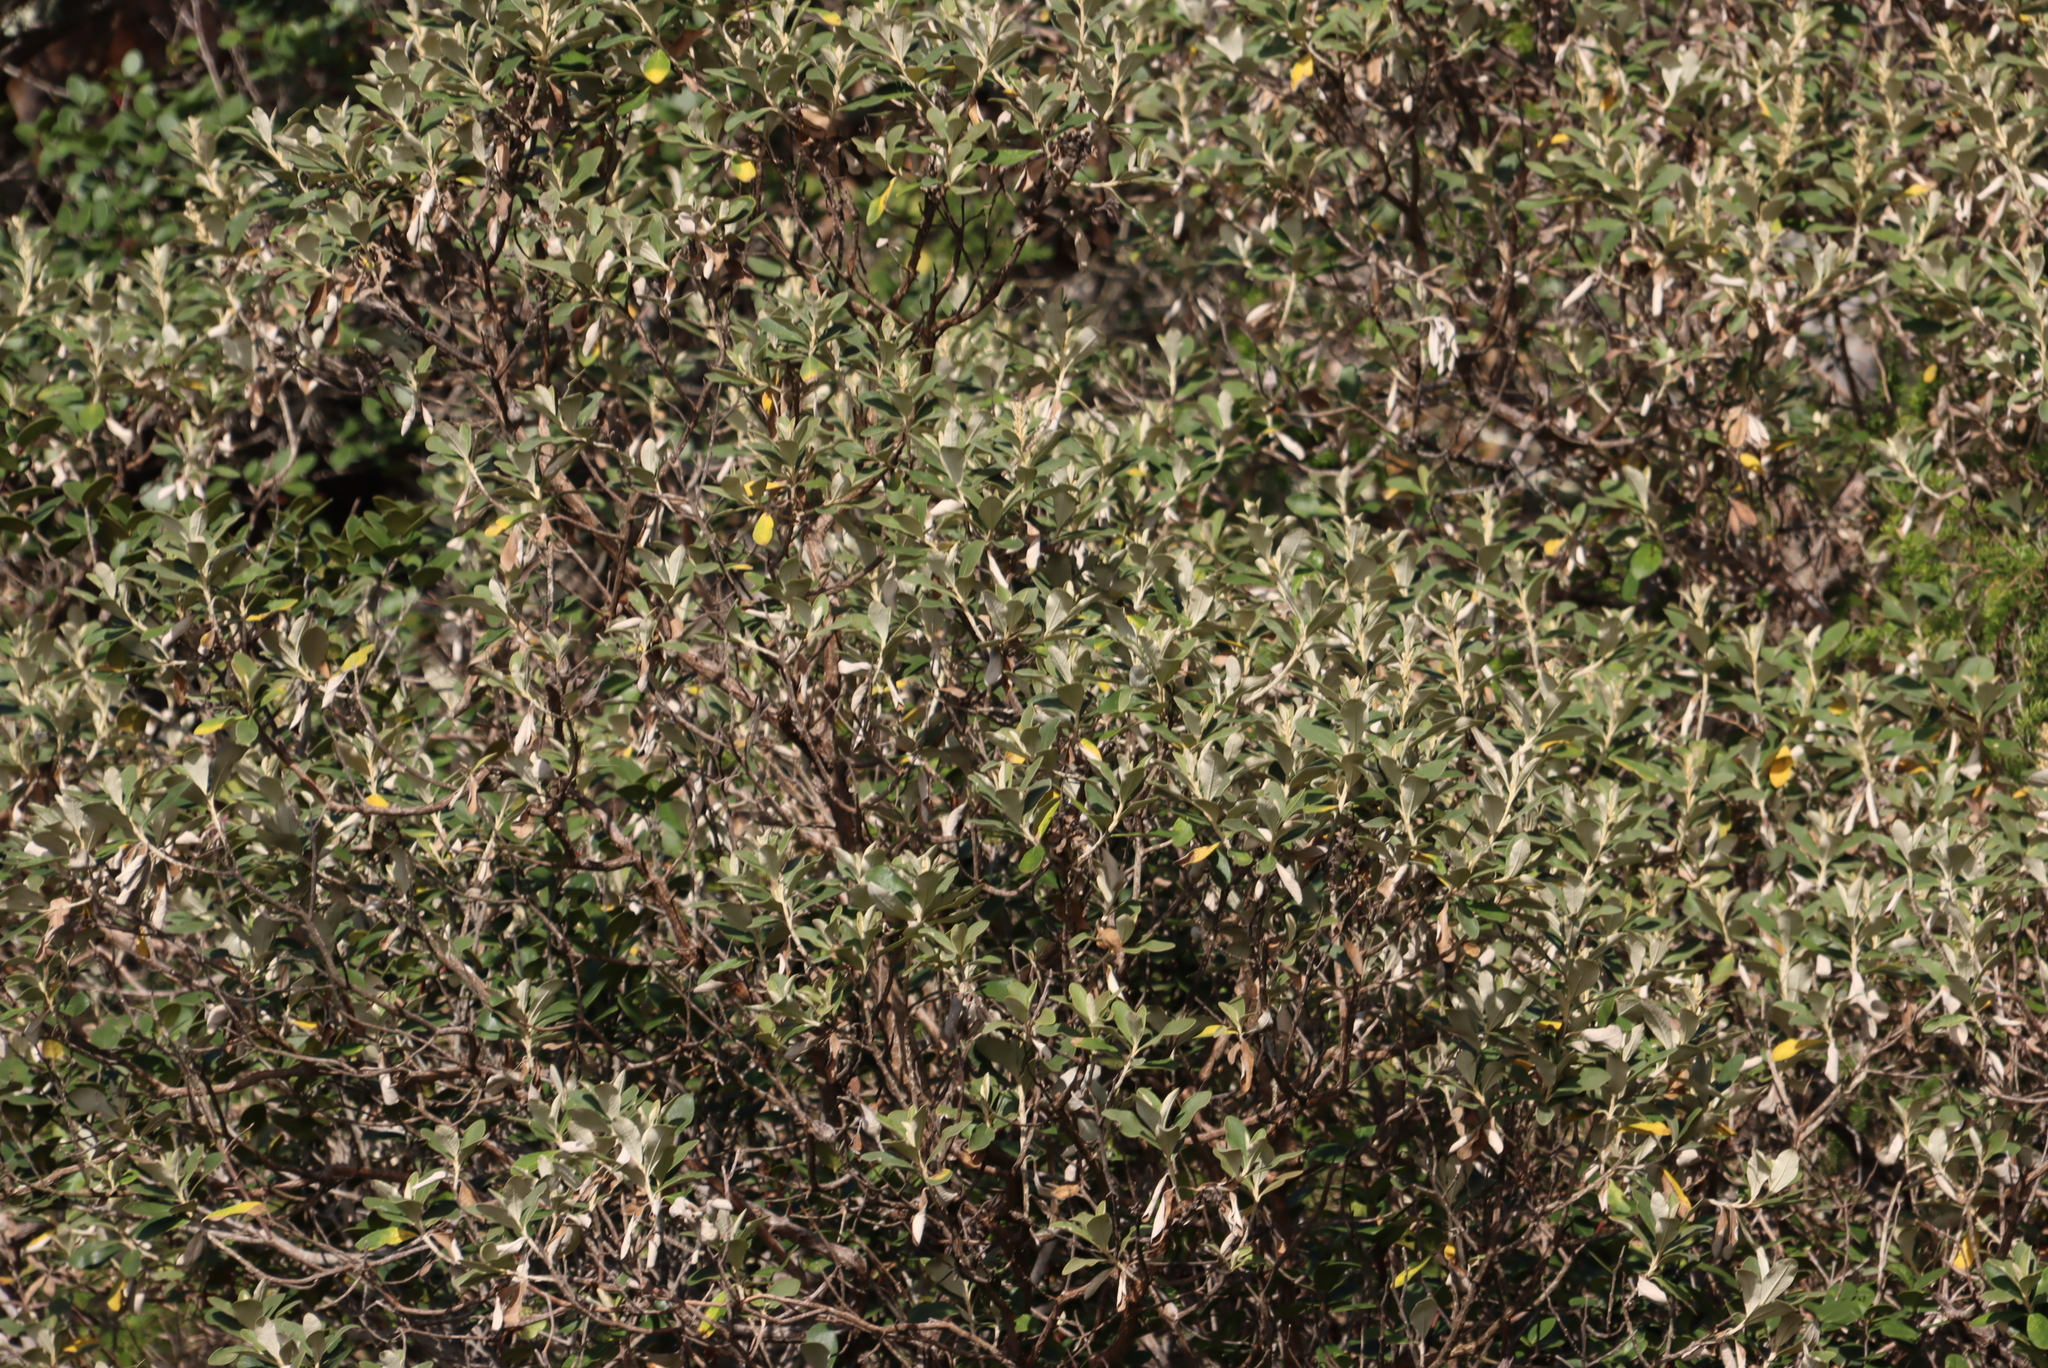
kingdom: Plantae
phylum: Tracheophyta
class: Magnoliopsida
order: Asterales
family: Asteraceae
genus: Tarchonanthus
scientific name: Tarchonanthus littoralis
